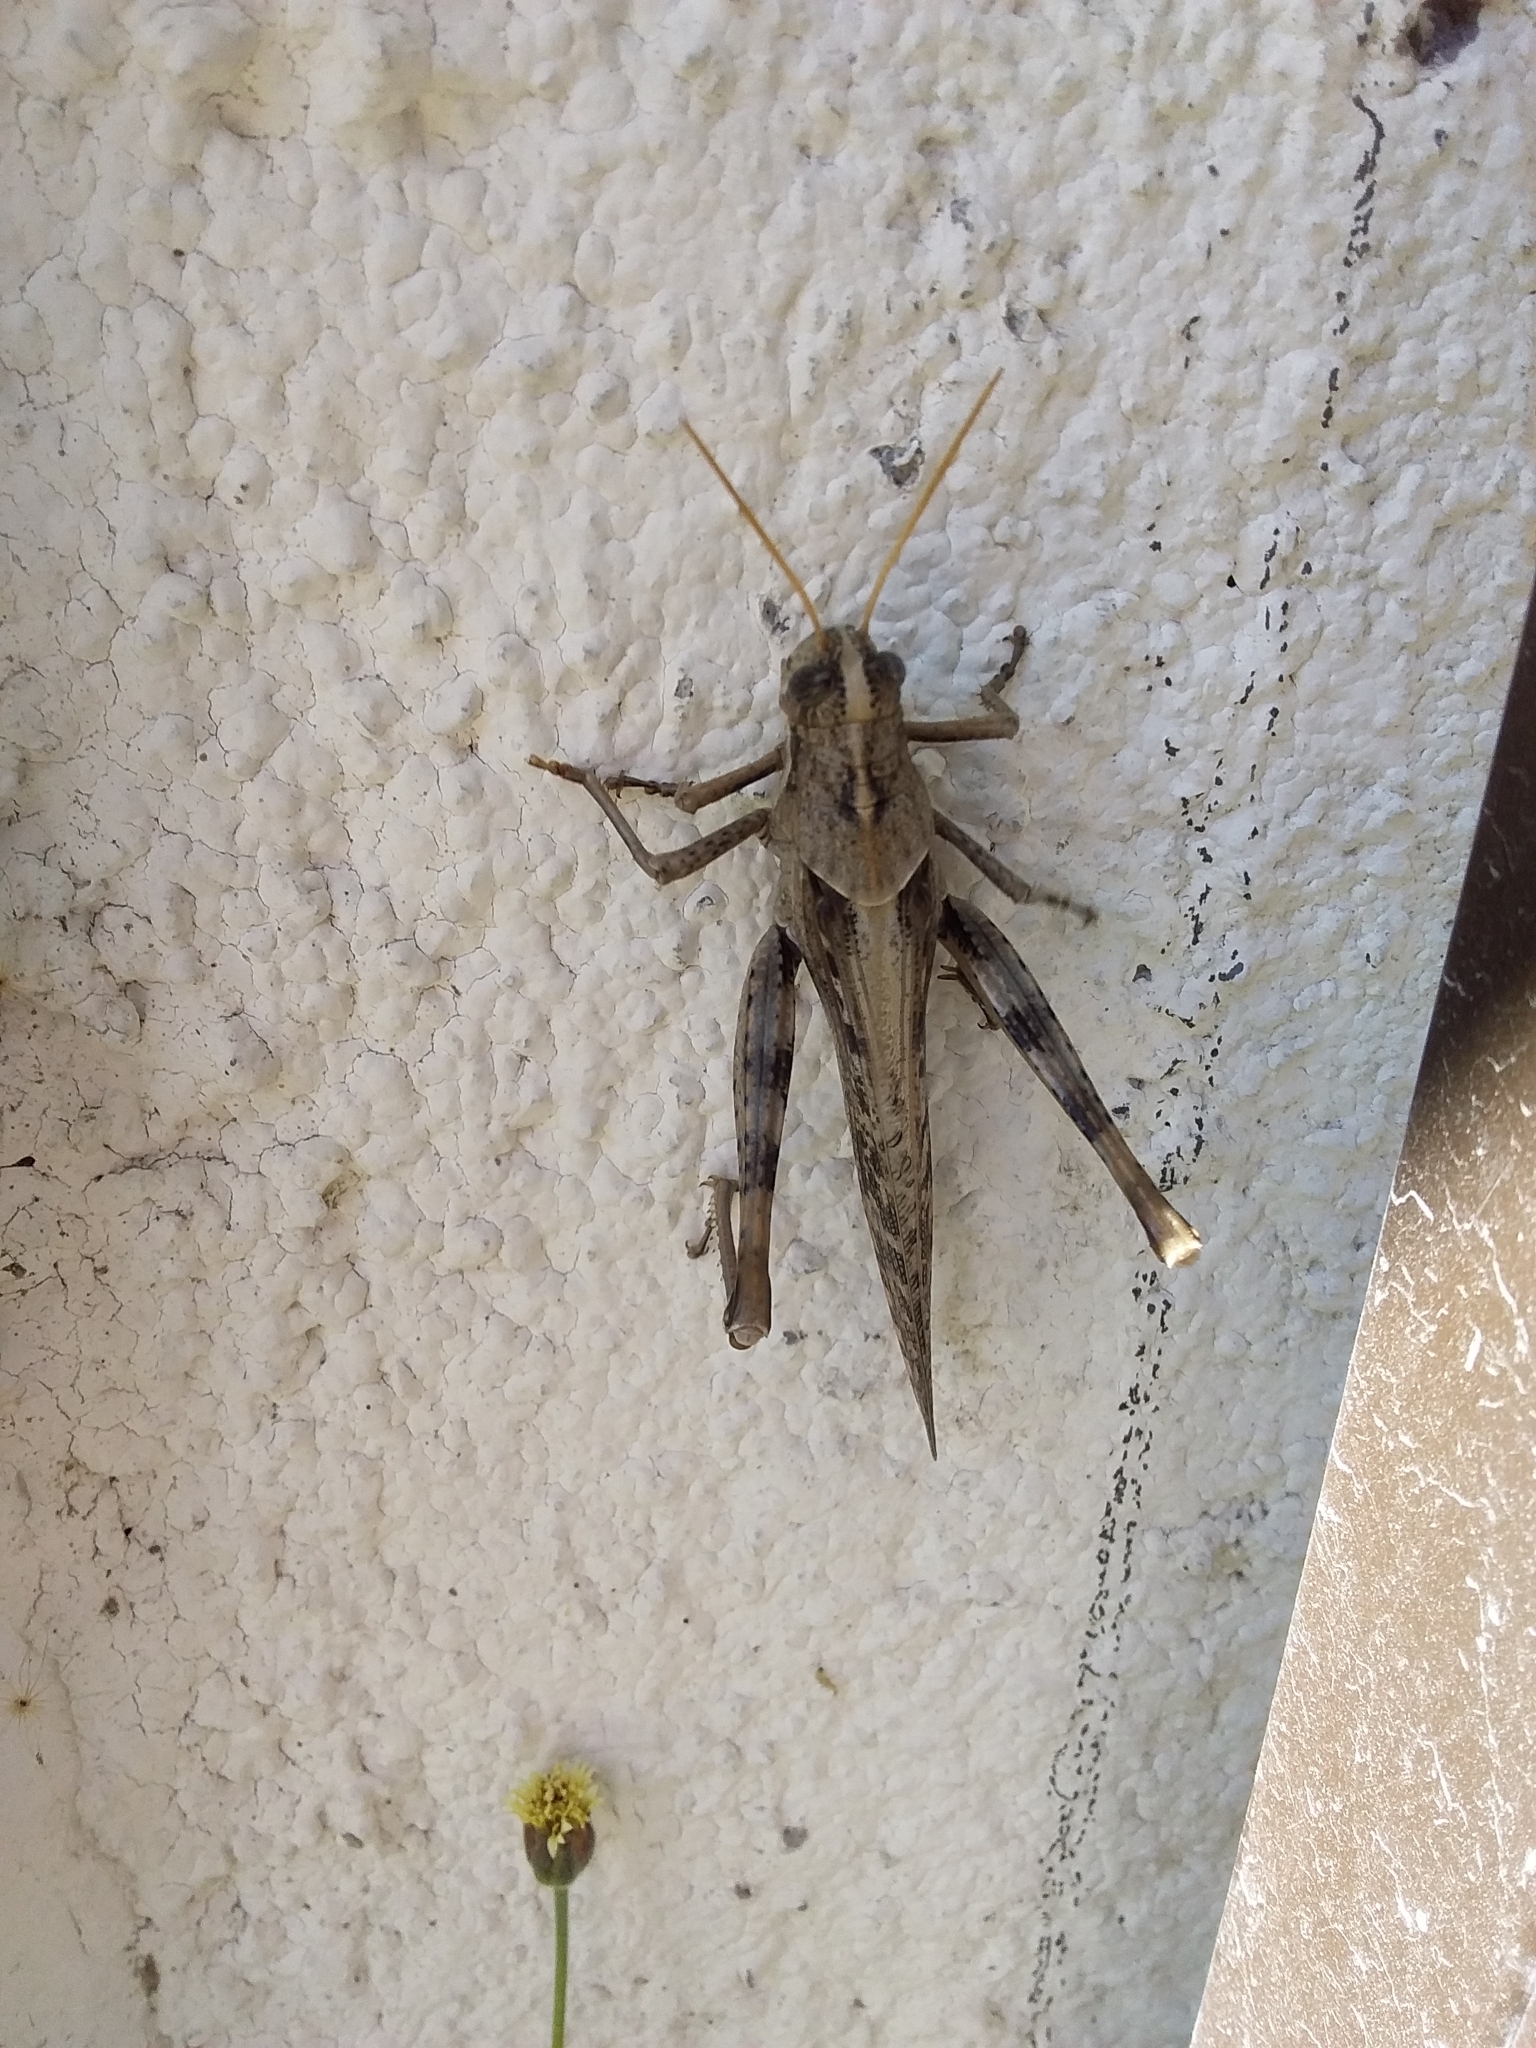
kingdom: Animalia
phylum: Arthropoda
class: Insecta
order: Orthoptera
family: Acrididae
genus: Schistocerca
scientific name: Schistocerca nitens
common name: Vagrant grasshopper
